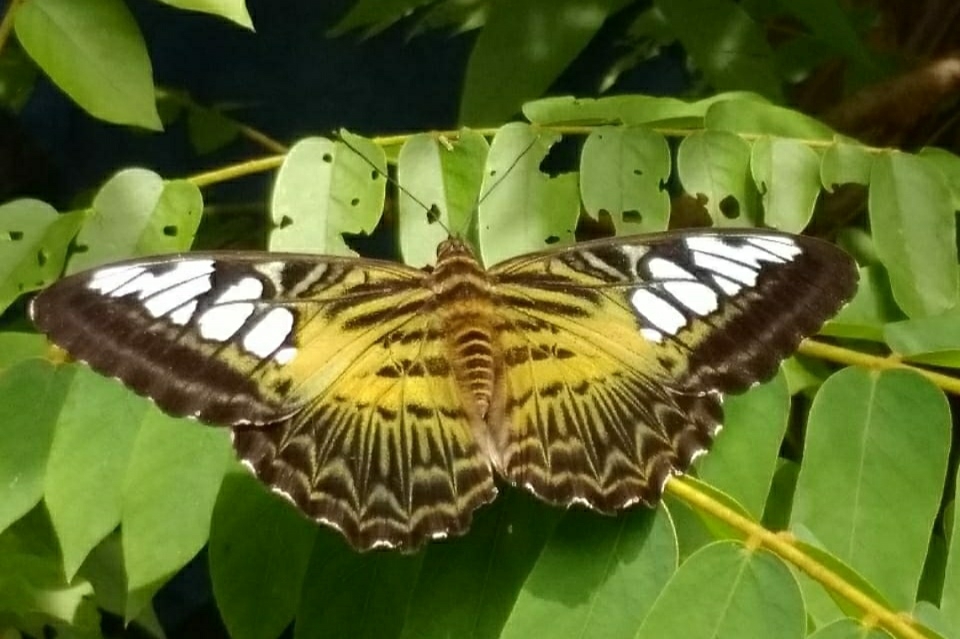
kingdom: Animalia
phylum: Arthropoda
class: Insecta
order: Lepidoptera
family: Nymphalidae
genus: Kallima
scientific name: Kallima sylvia
